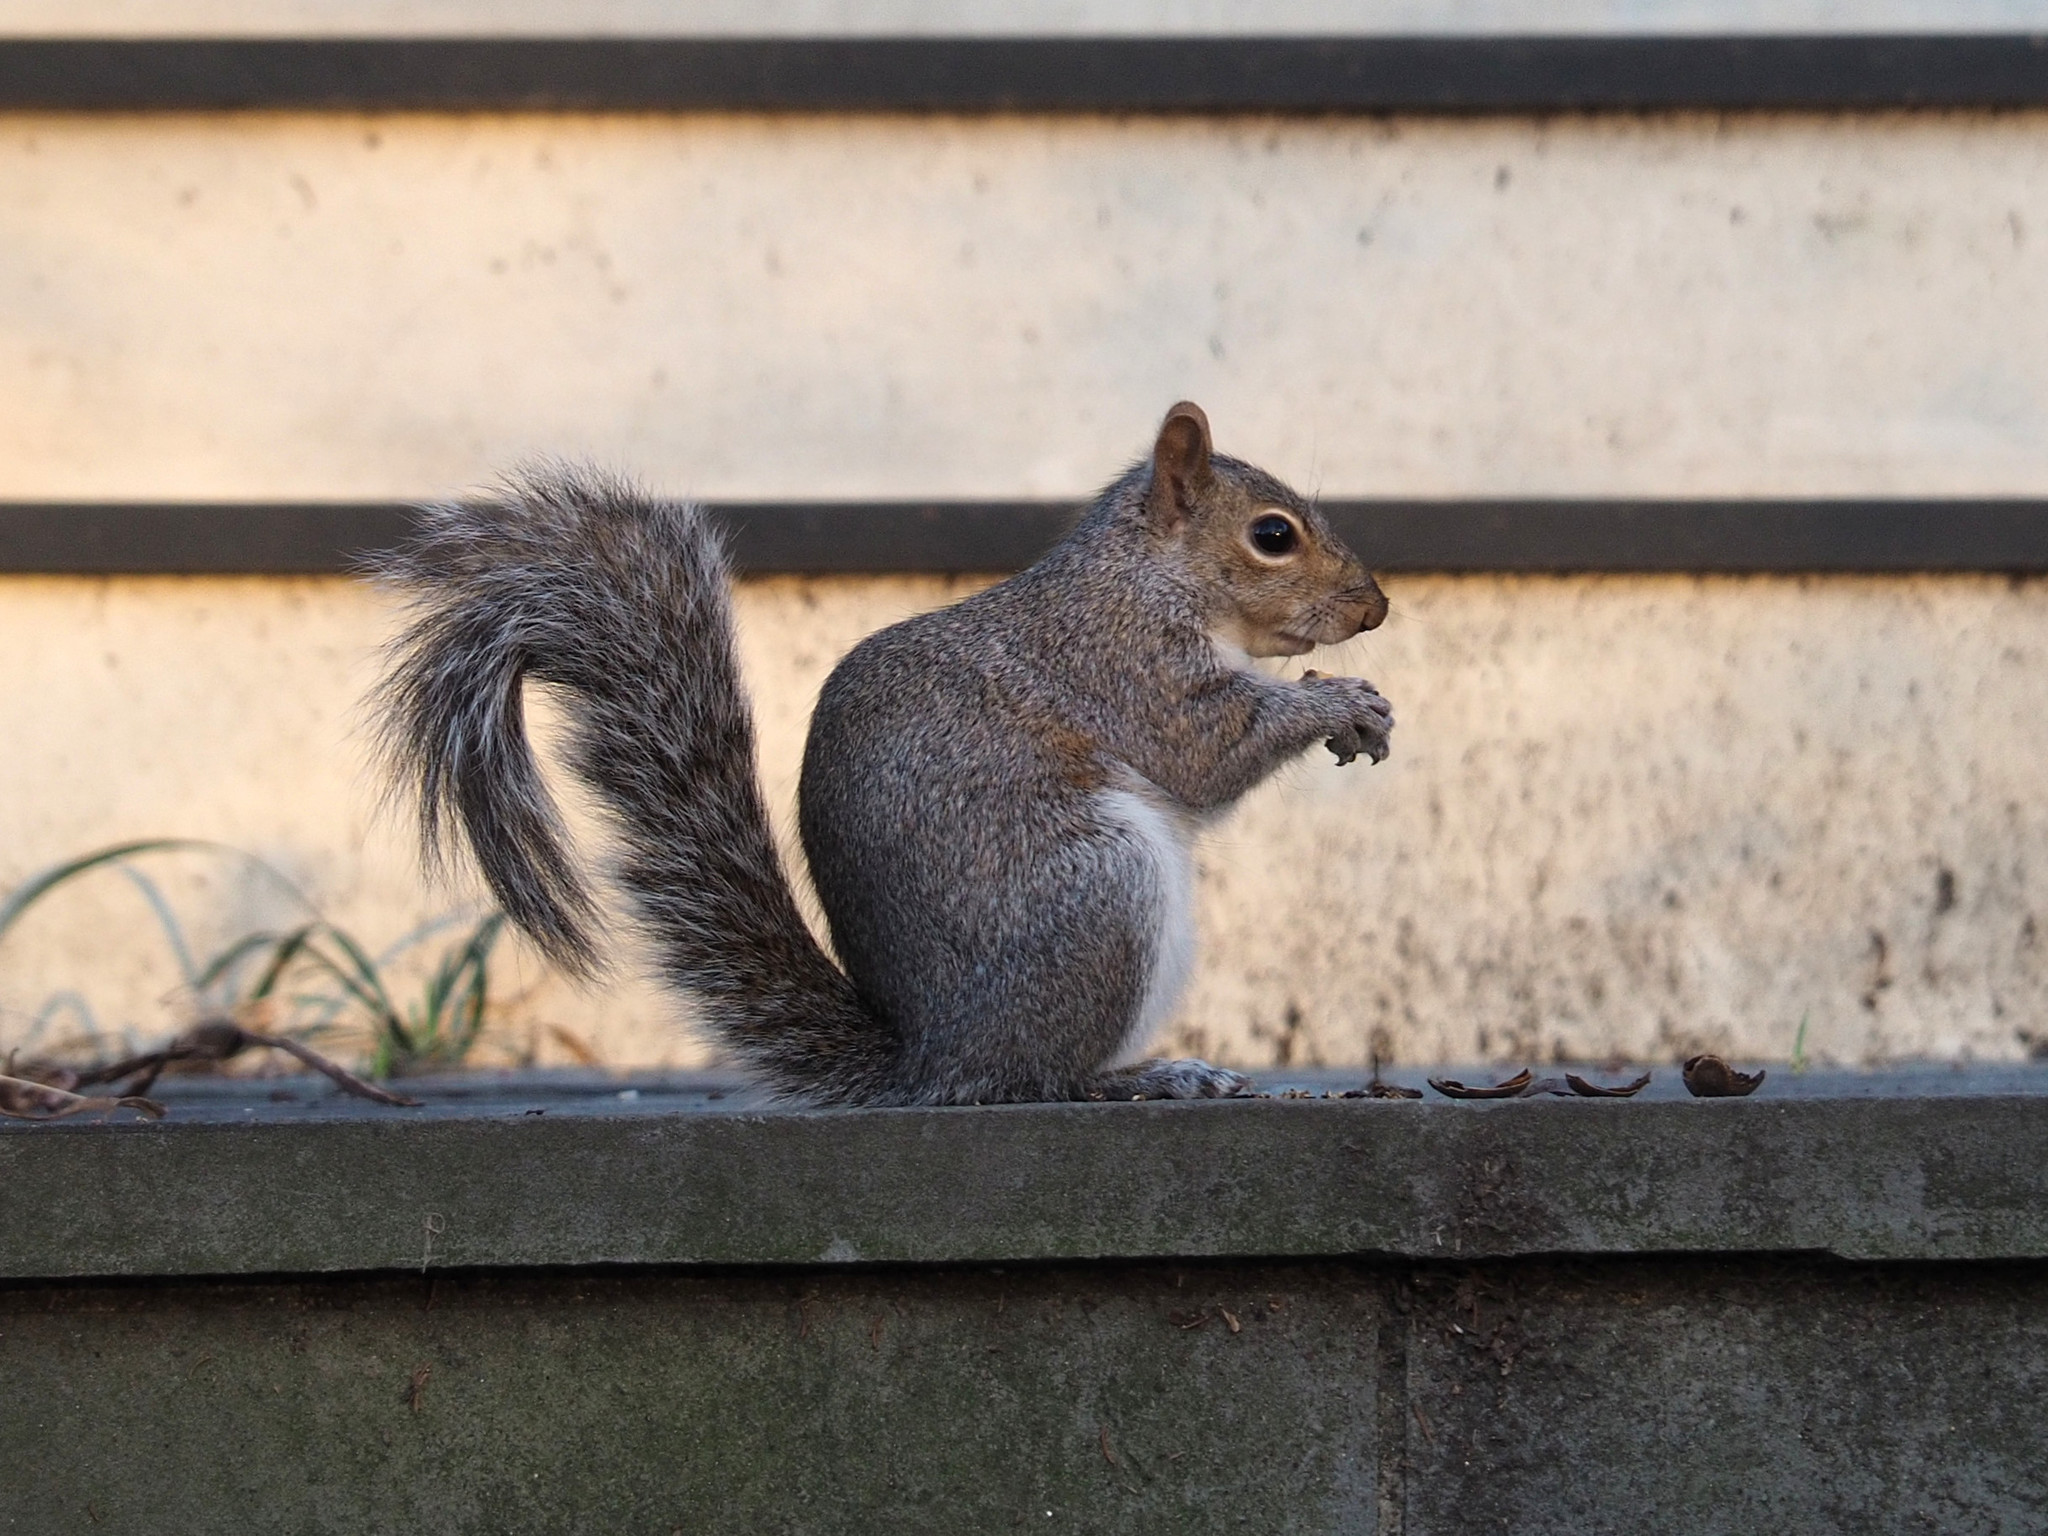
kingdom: Animalia
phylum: Chordata
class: Mammalia
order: Rodentia
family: Sciuridae
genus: Sciurus
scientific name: Sciurus carolinensis
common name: Eastern gray squirrel
